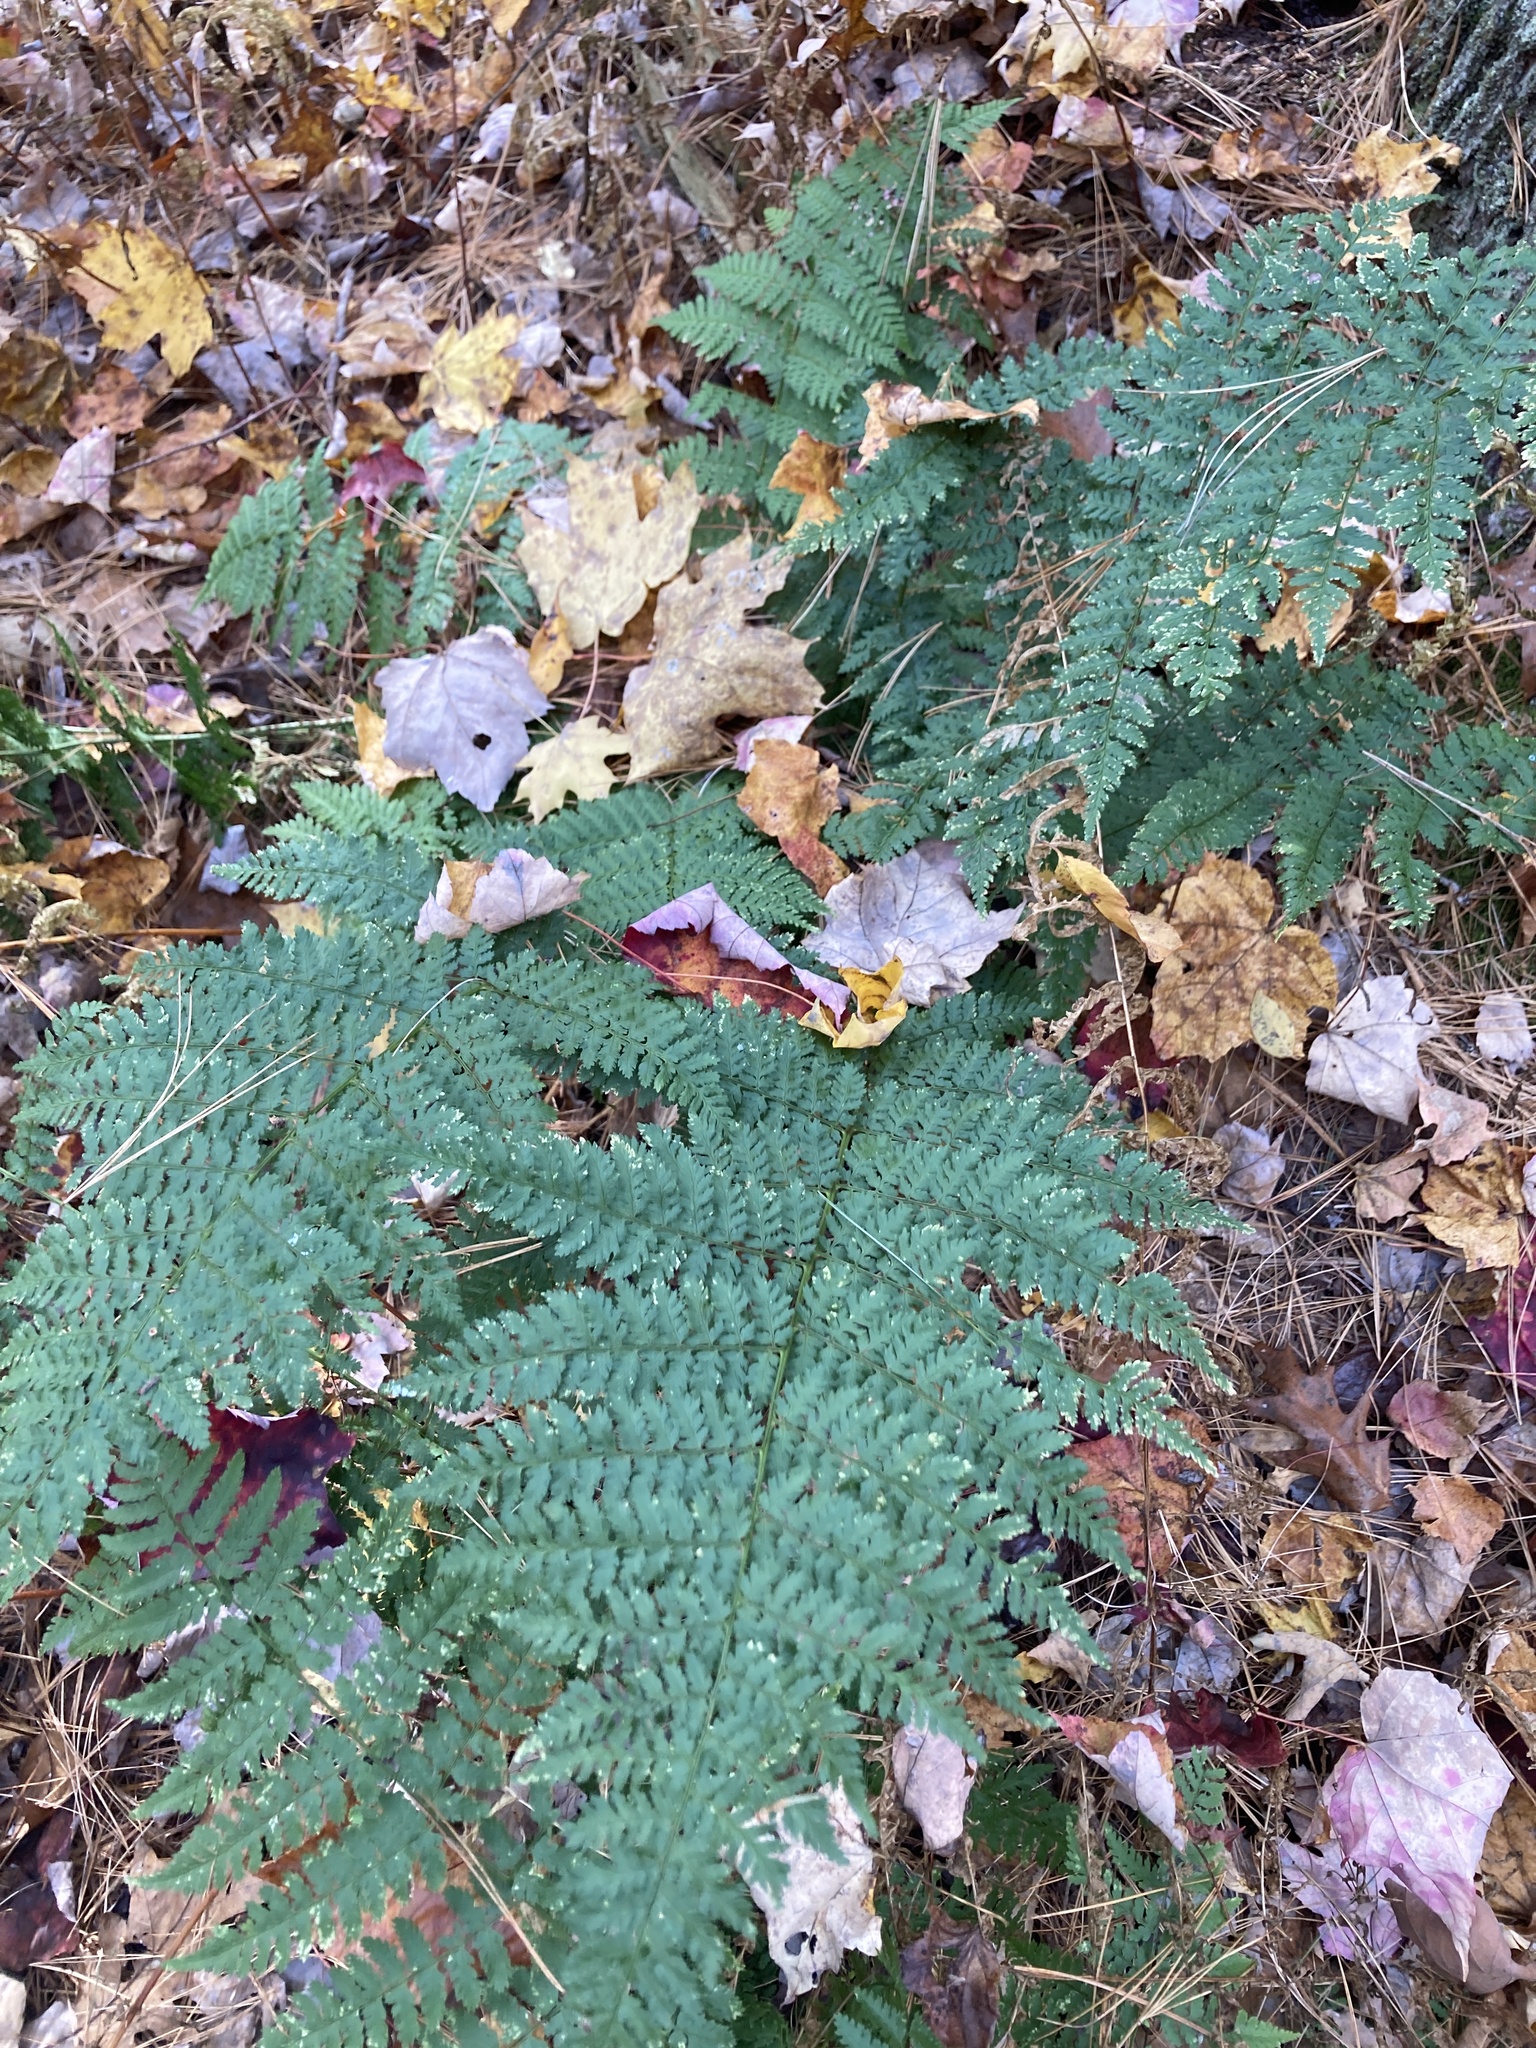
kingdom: Plantae
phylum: Tracheophyta
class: Polypodiopsida
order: Polypodiales
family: Dryopteridaceae
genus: Dryopteris
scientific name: Dryopteris intermedia
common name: Evergreen wood fern
